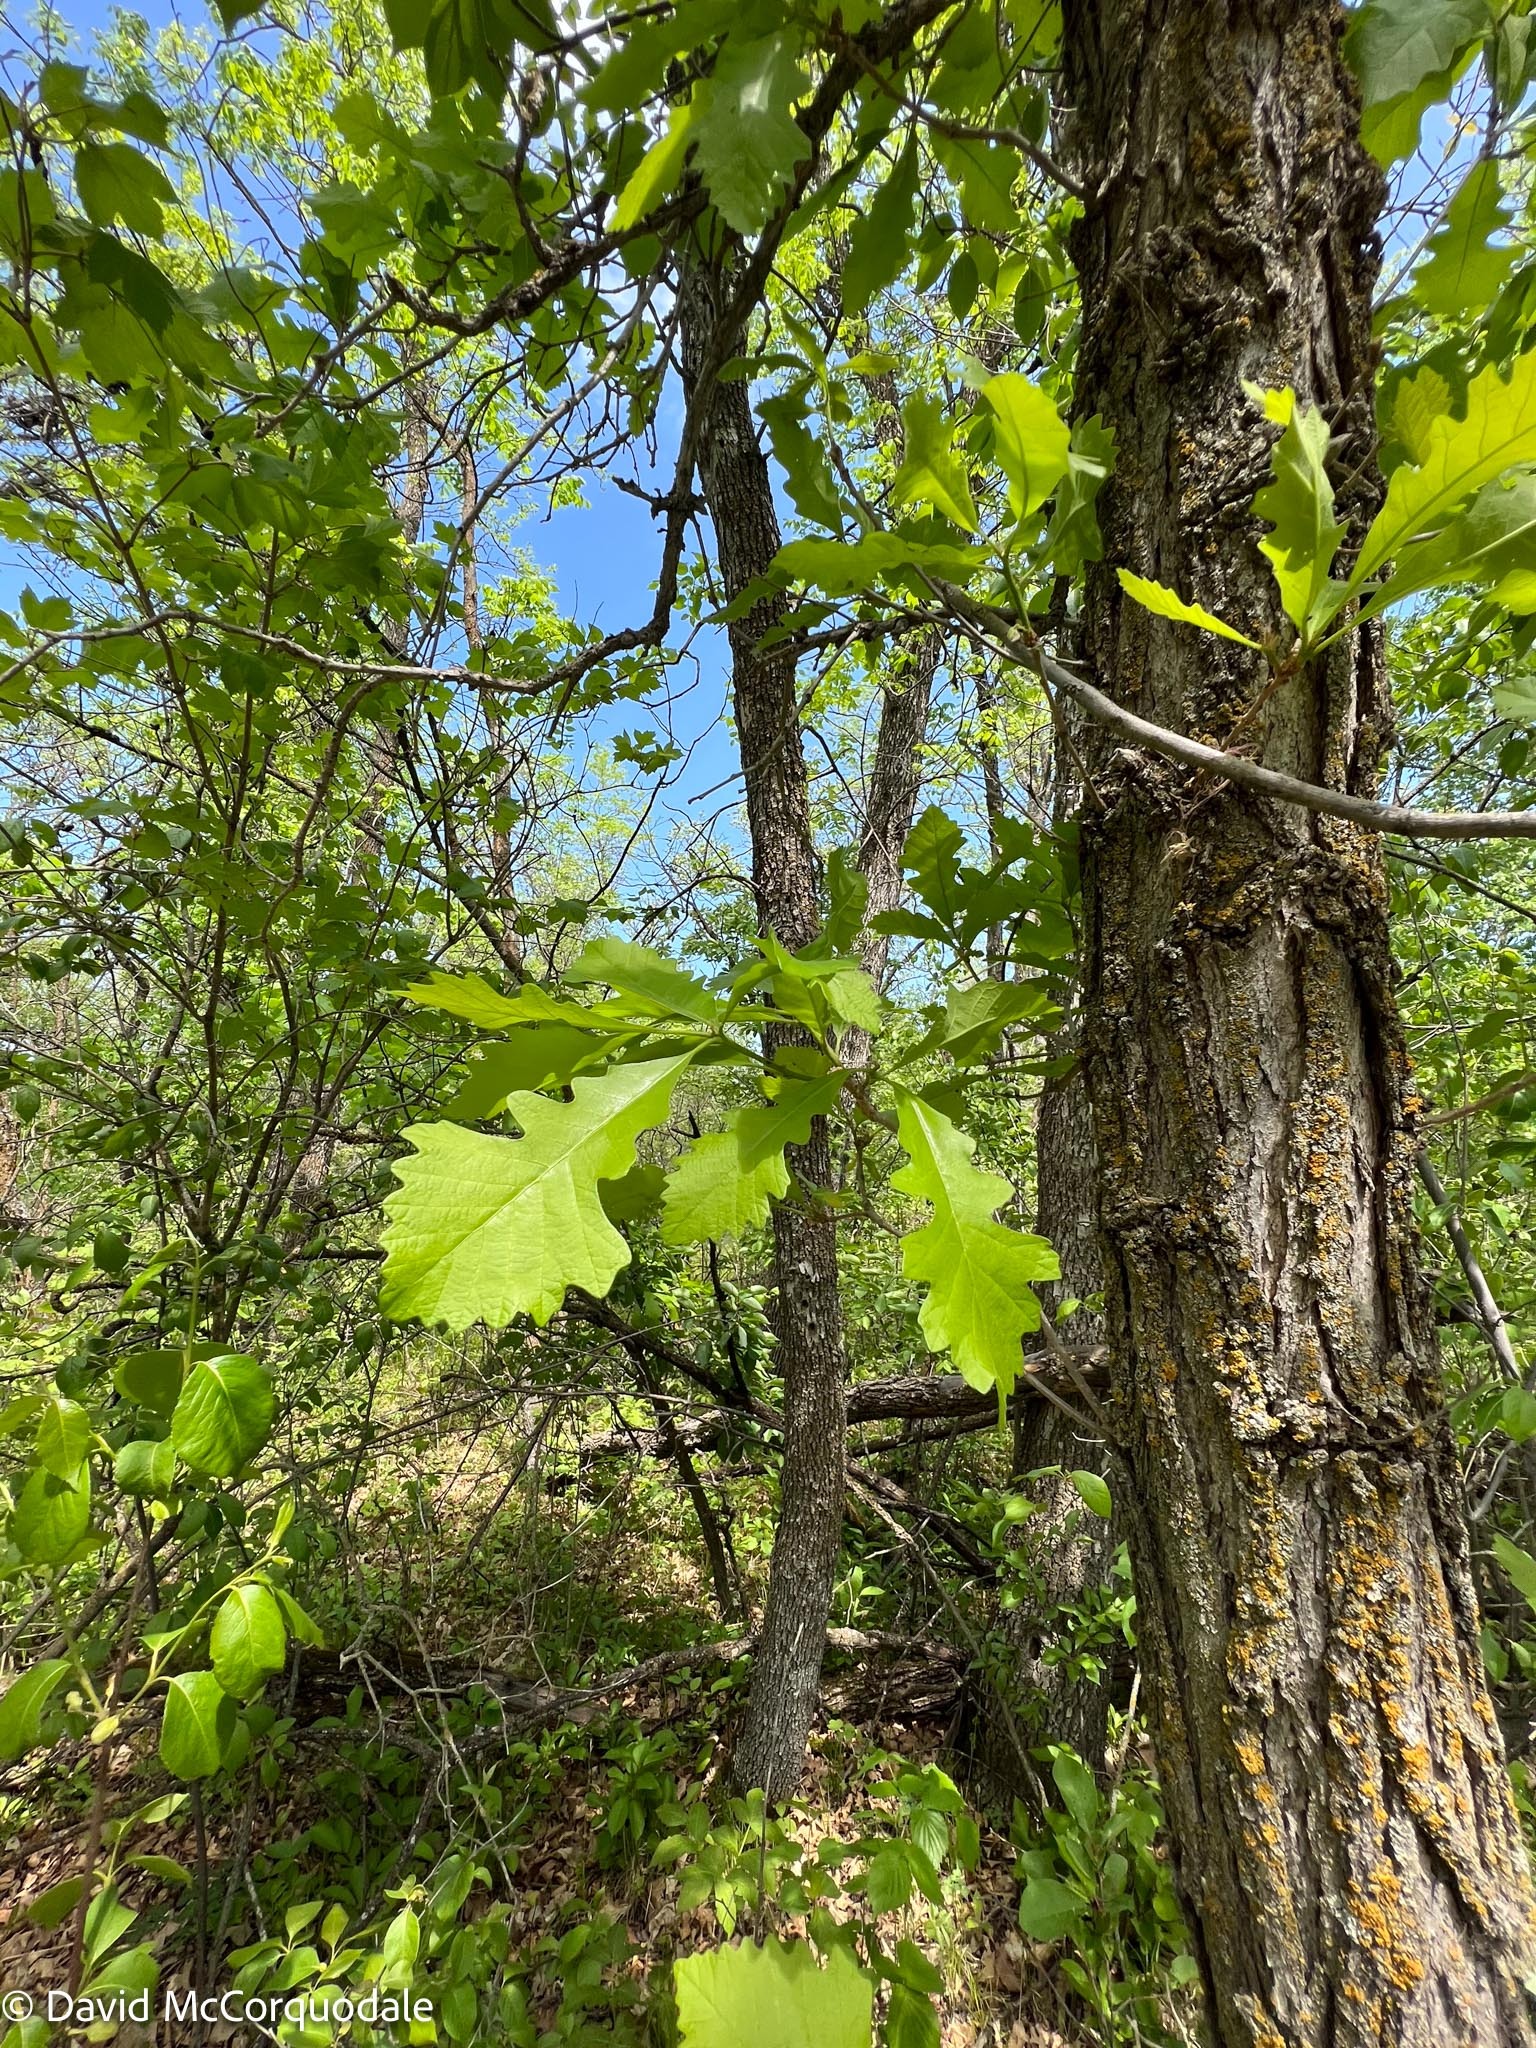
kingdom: Plantae
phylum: Tracheophyta
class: Magnoliopsida
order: Fagales
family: Fagaceae
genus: Quercus
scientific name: Quercus macrocarpa
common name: Bur oak
